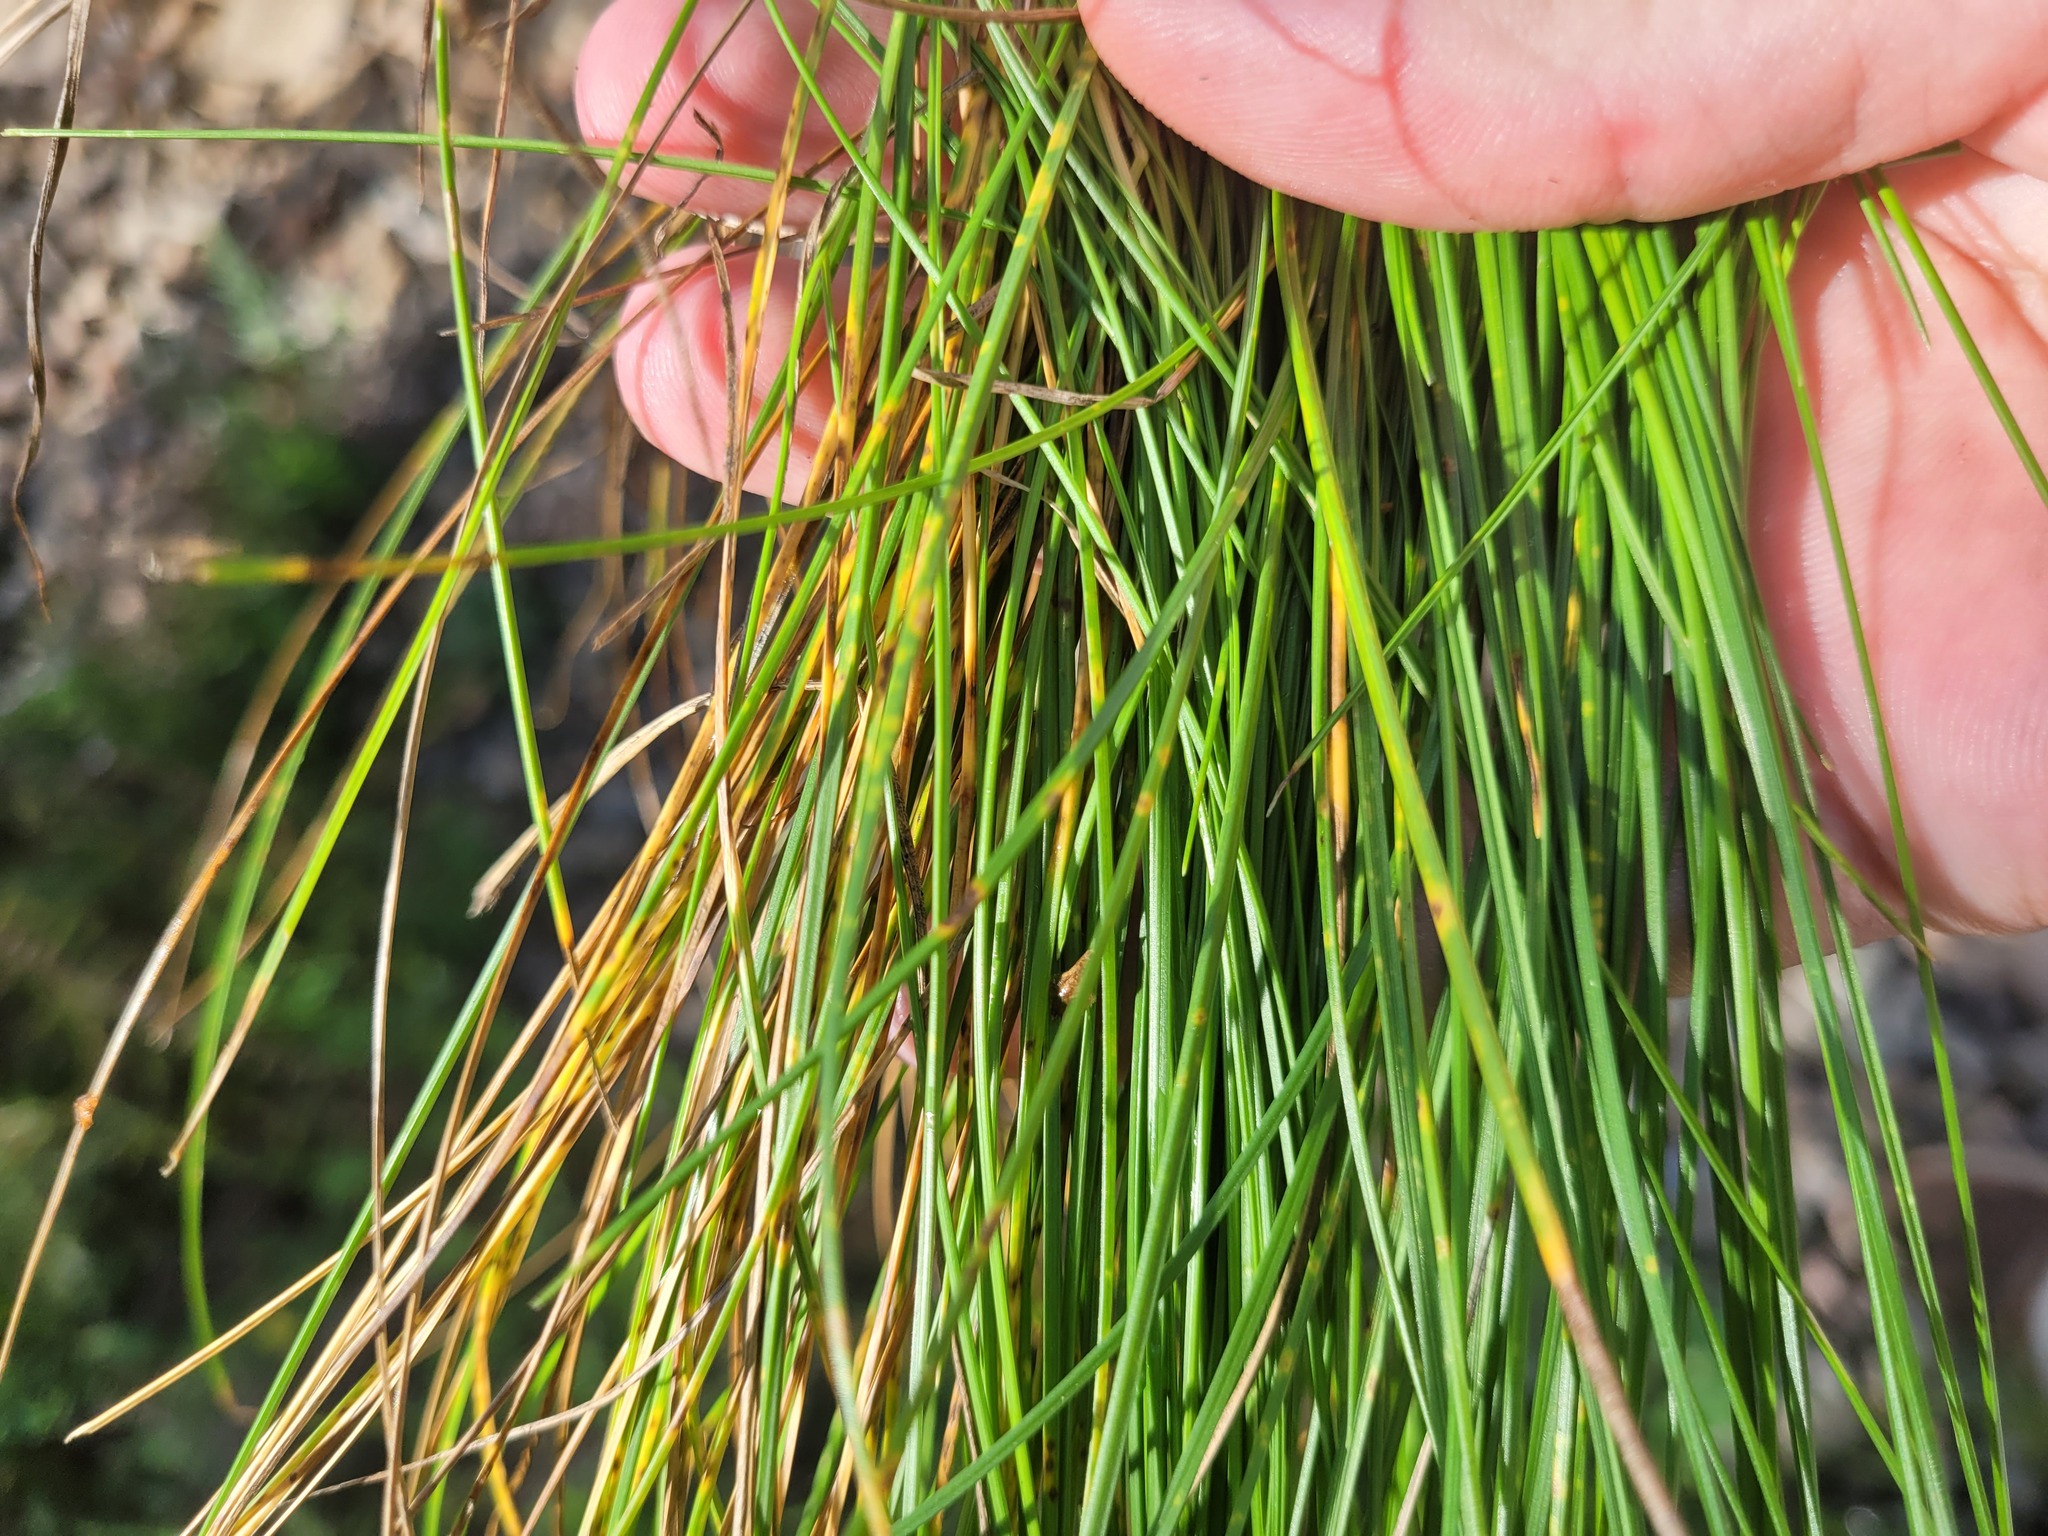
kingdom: Plantae
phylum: Tracheophyta
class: Liliopsida
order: Poales
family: Poaceae
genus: Festuca
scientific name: Festuca rubra
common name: Red fescue
